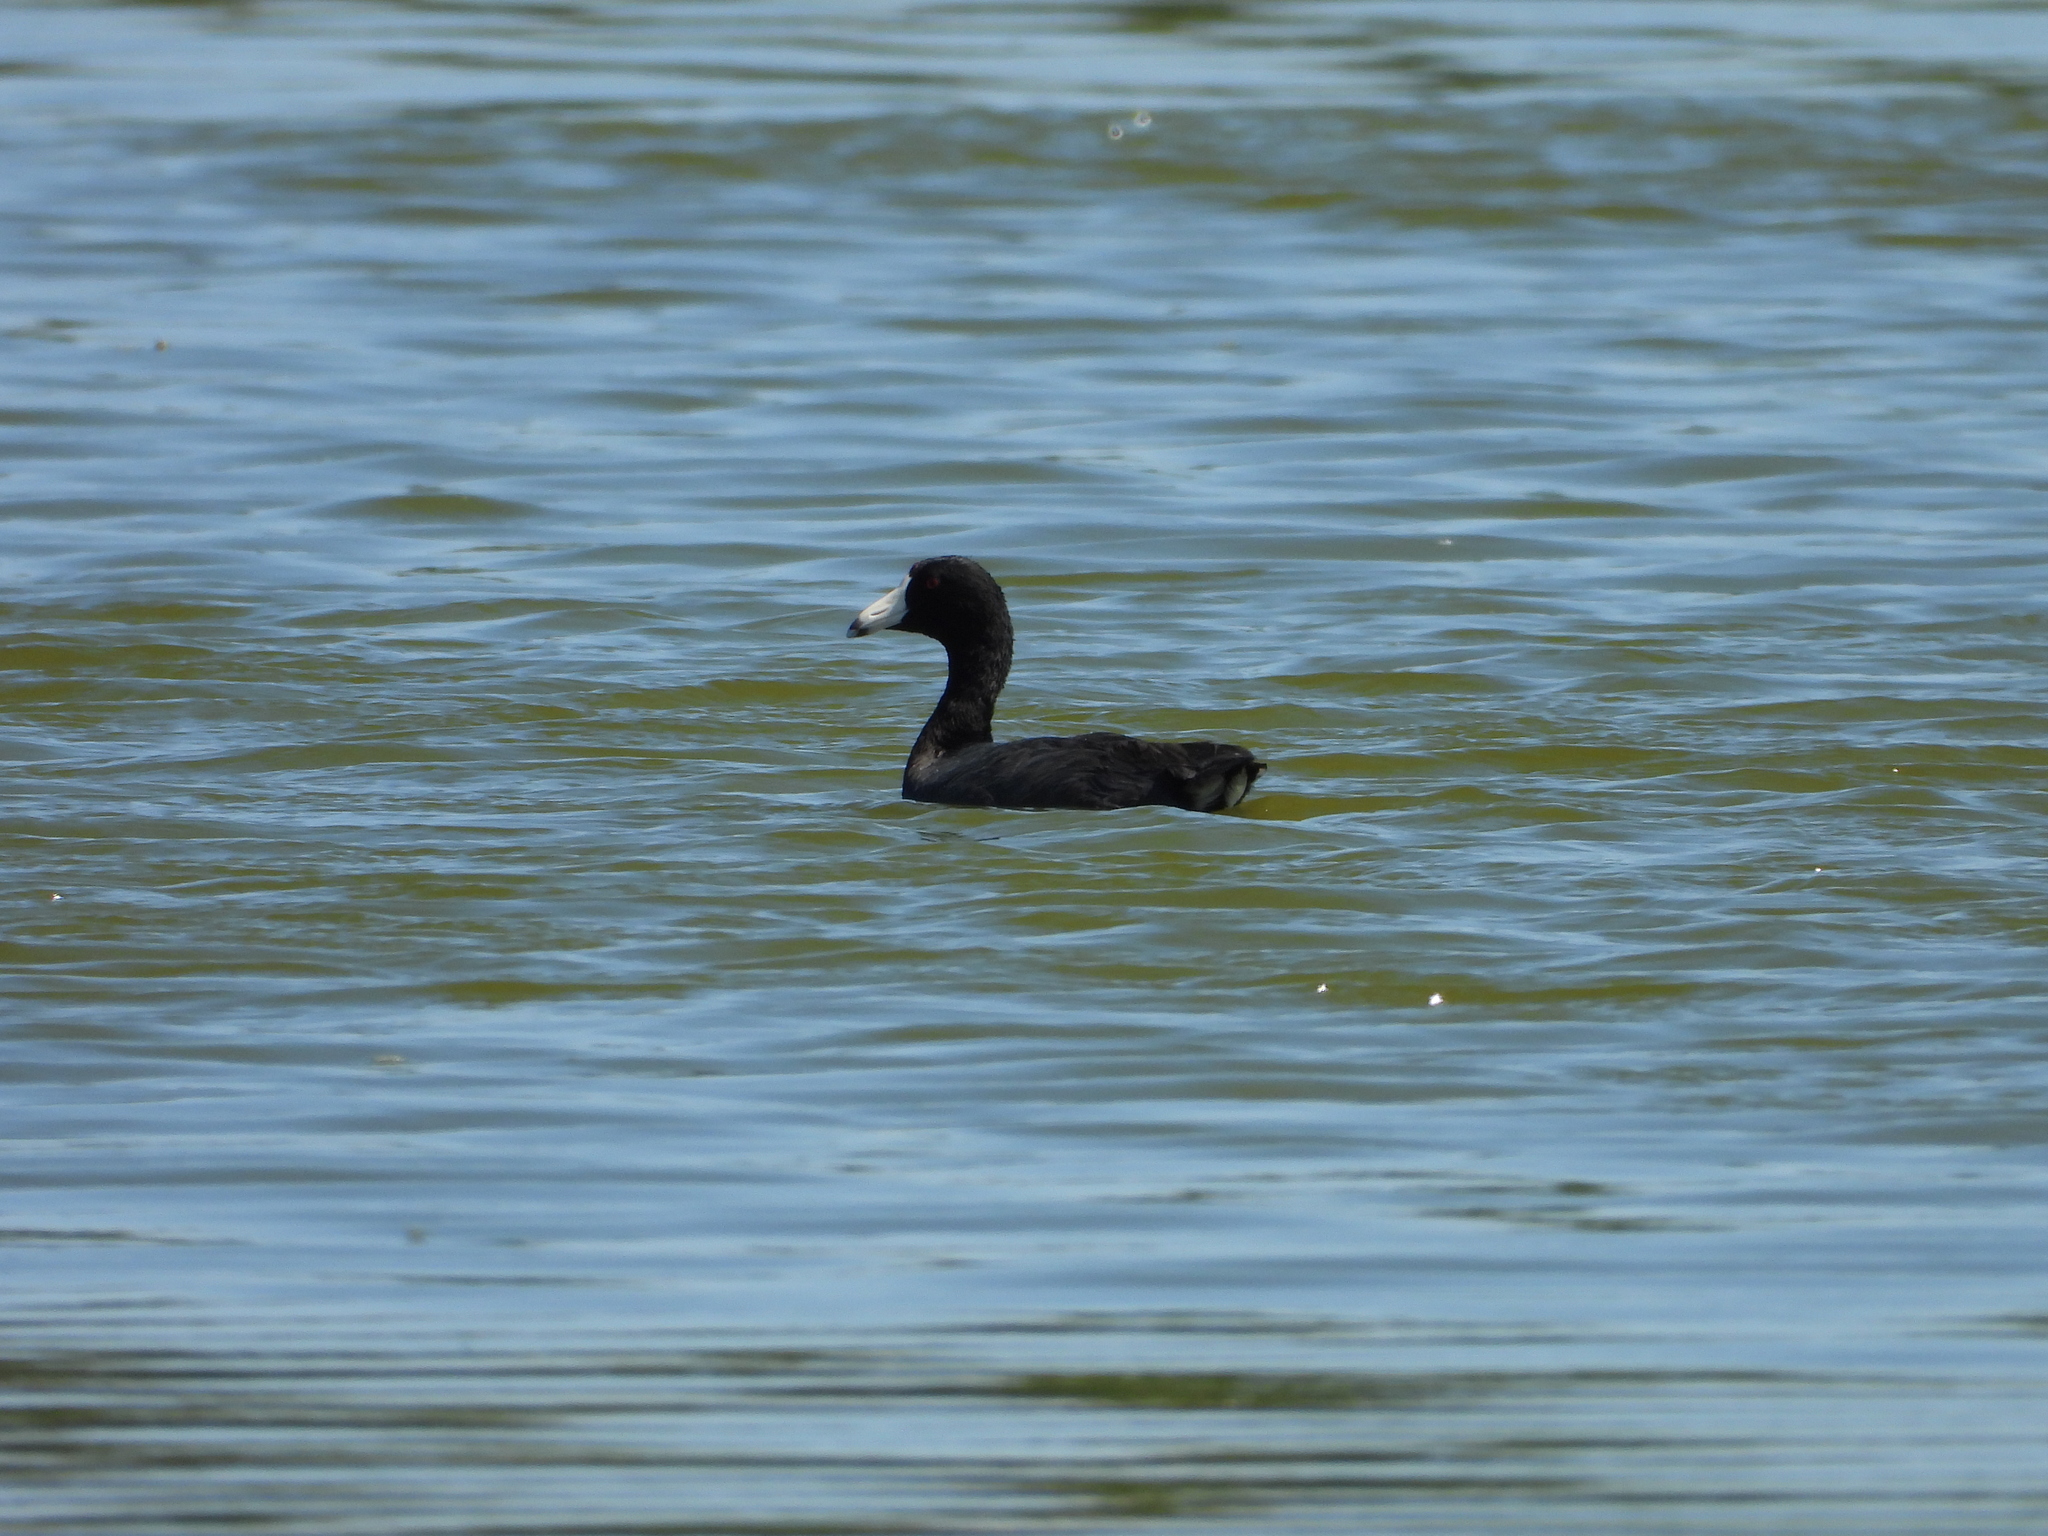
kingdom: Animalia
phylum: Chordata
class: Aves
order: Gruiformes
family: Rallidae
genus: Fulica
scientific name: Fulica americana
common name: American coot
